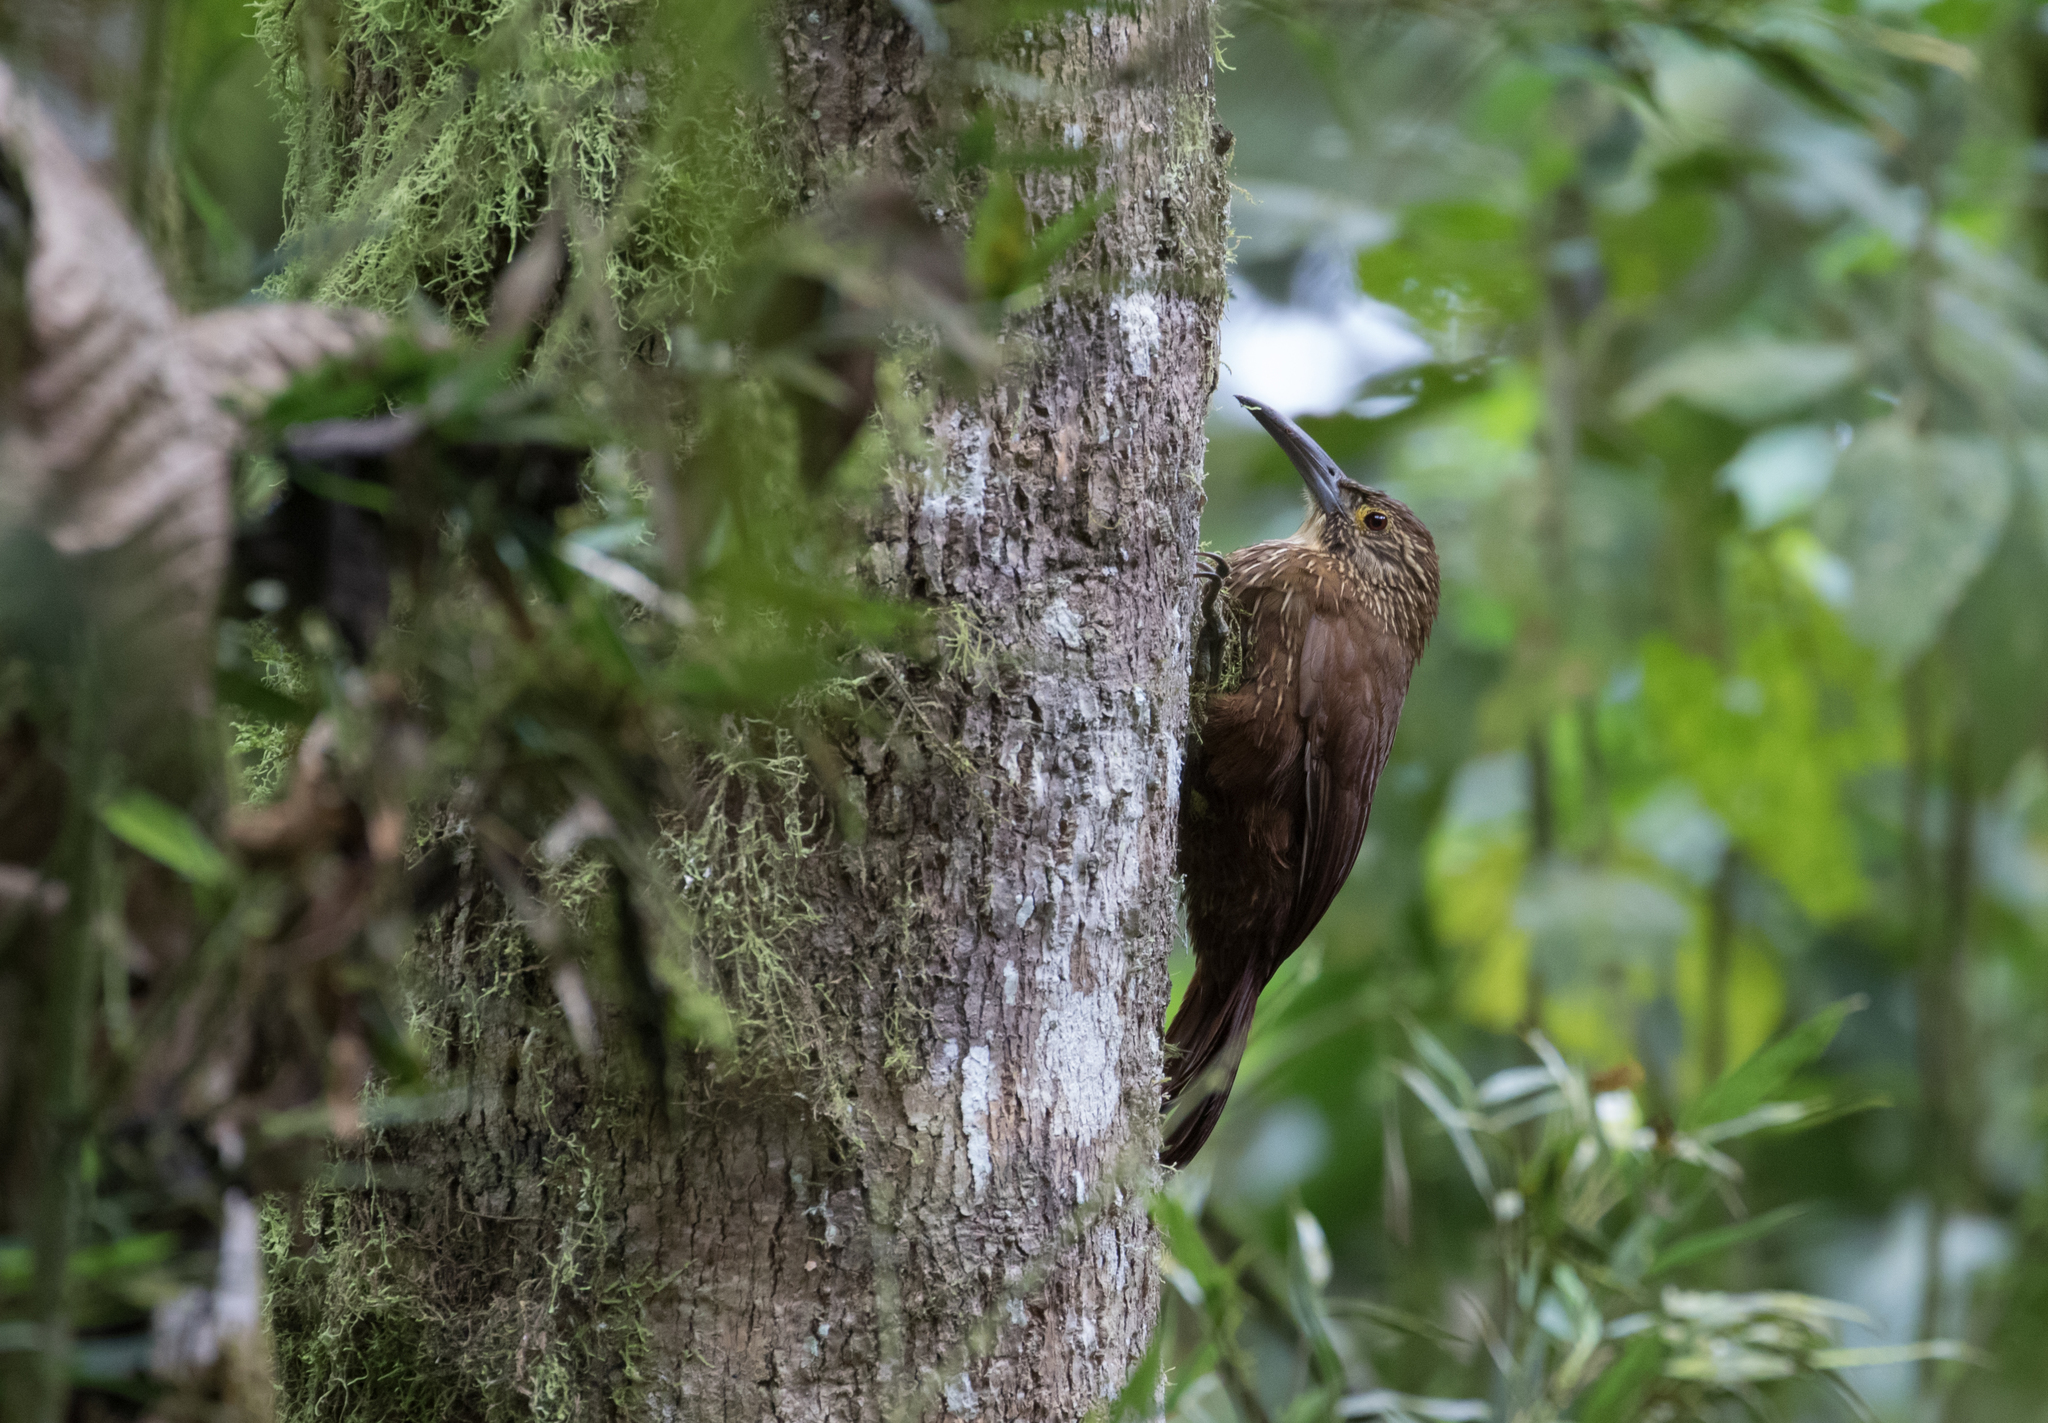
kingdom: Animalia
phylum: Chordata
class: Aves
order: Passeriformes
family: Furnariidae
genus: Xiphocolaptes
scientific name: Xiphocolaptes promeropirhynchus
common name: Strong-billed woodcreeper
